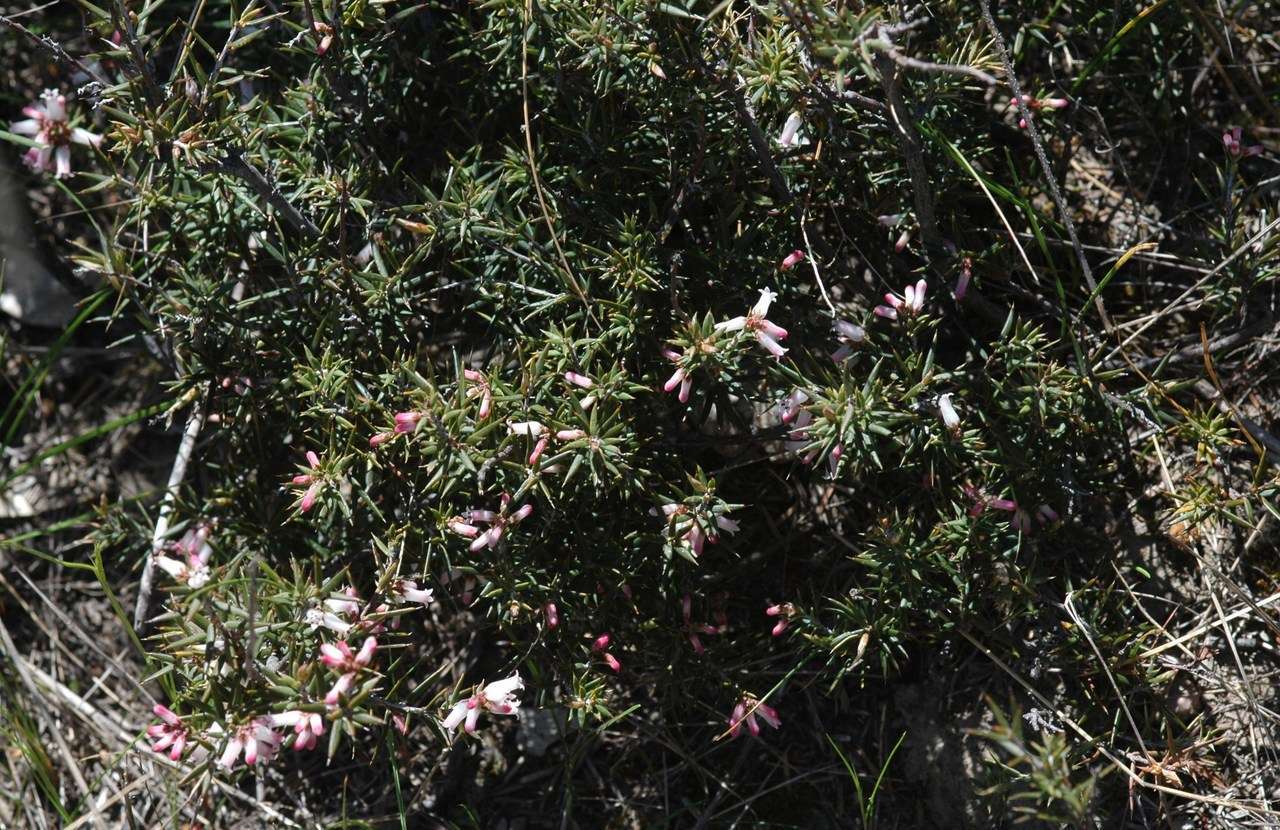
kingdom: Plantae
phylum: Tracheophyta
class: Magnoliopsida
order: Ericales
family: Ericaceae
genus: Lissanthe
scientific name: Lissanthe strigosa
